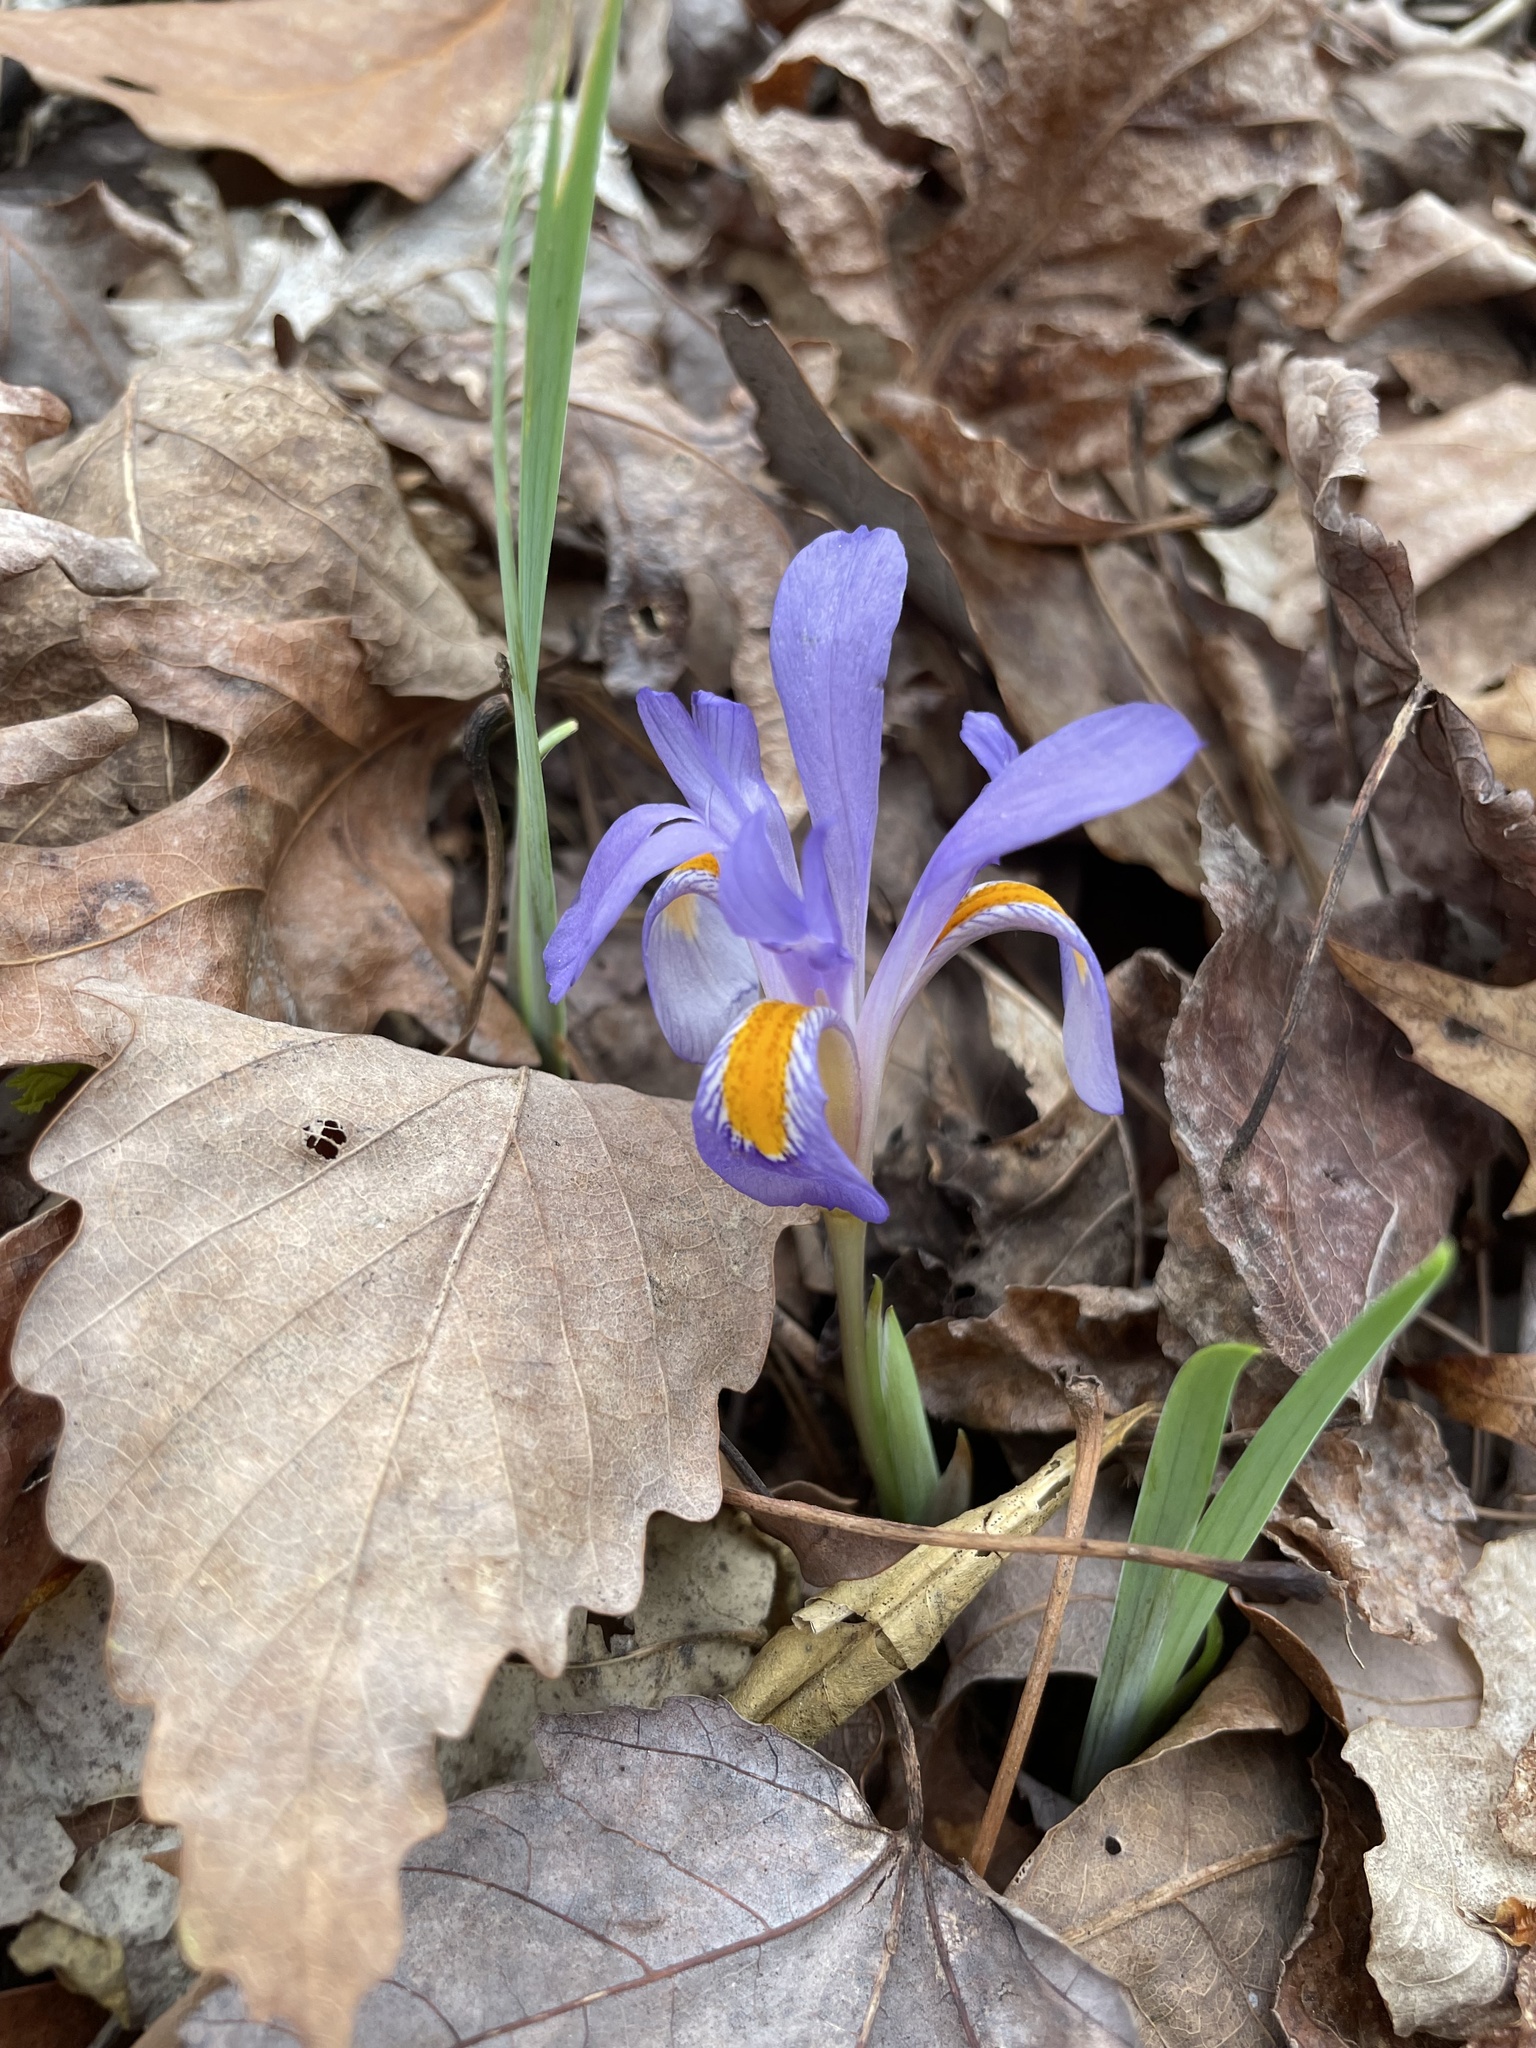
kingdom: Plantae
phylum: Tracheophyta
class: Liliopsida
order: Asparagales
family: Iridaceae
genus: Iris
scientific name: Iris verna
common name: Dwarf iris
